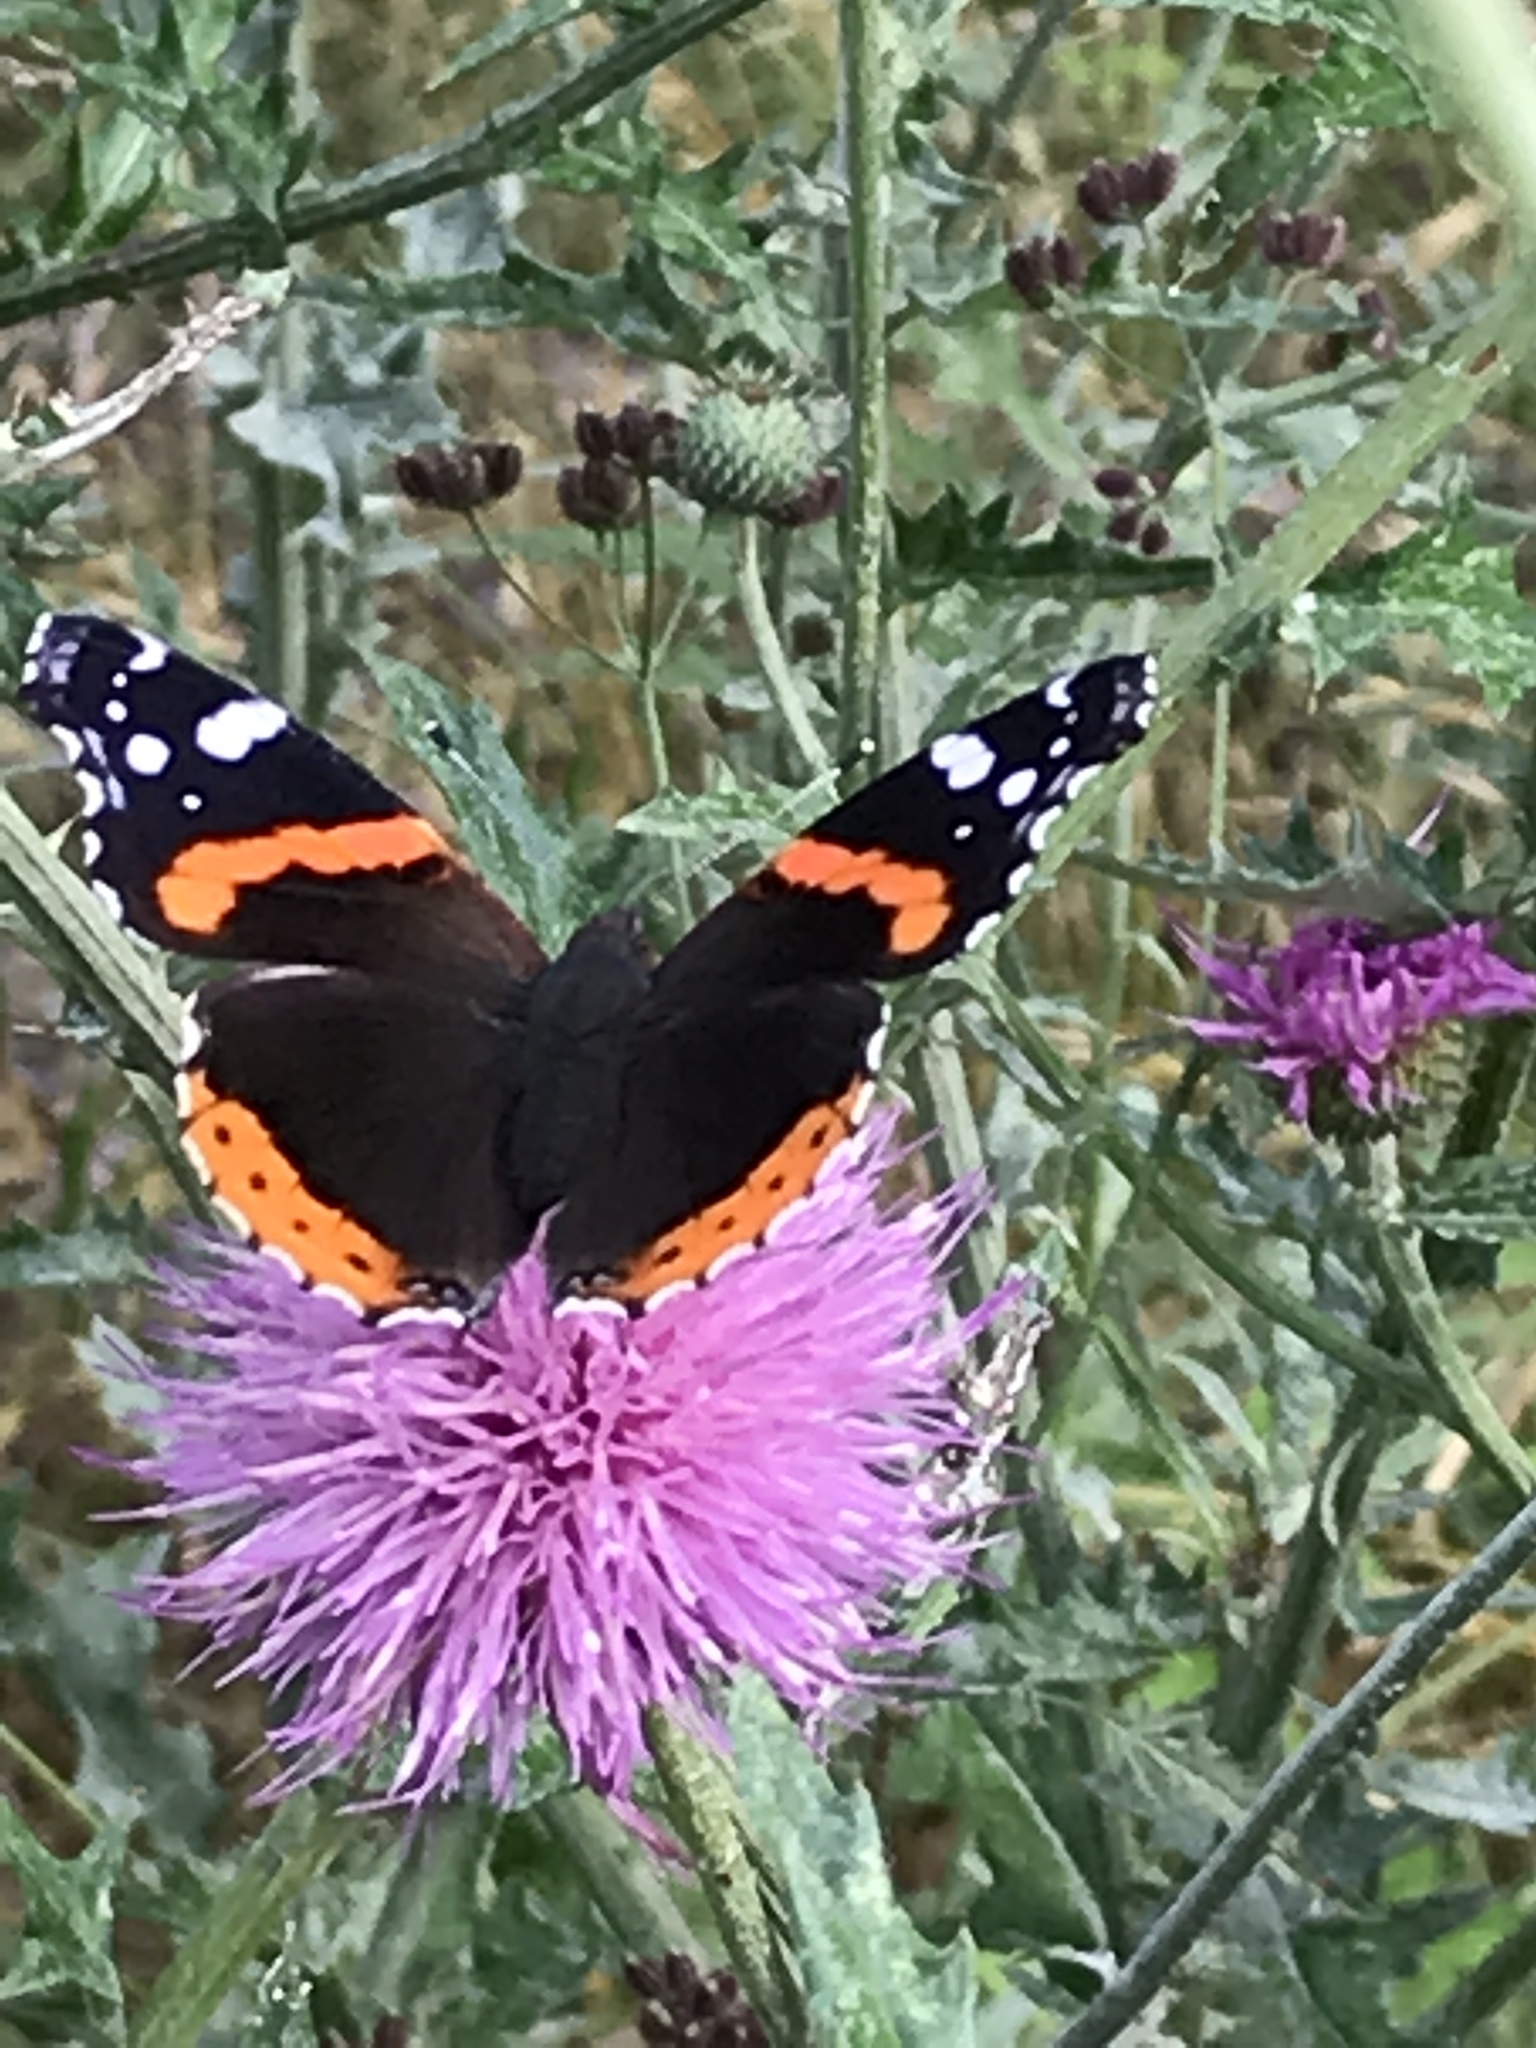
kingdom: Animalia
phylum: Arthropoda
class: Insecta
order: Lepidoptera
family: Nymphalidae
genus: Vanessa
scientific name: Vanessa atalanta
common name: Red admiral
